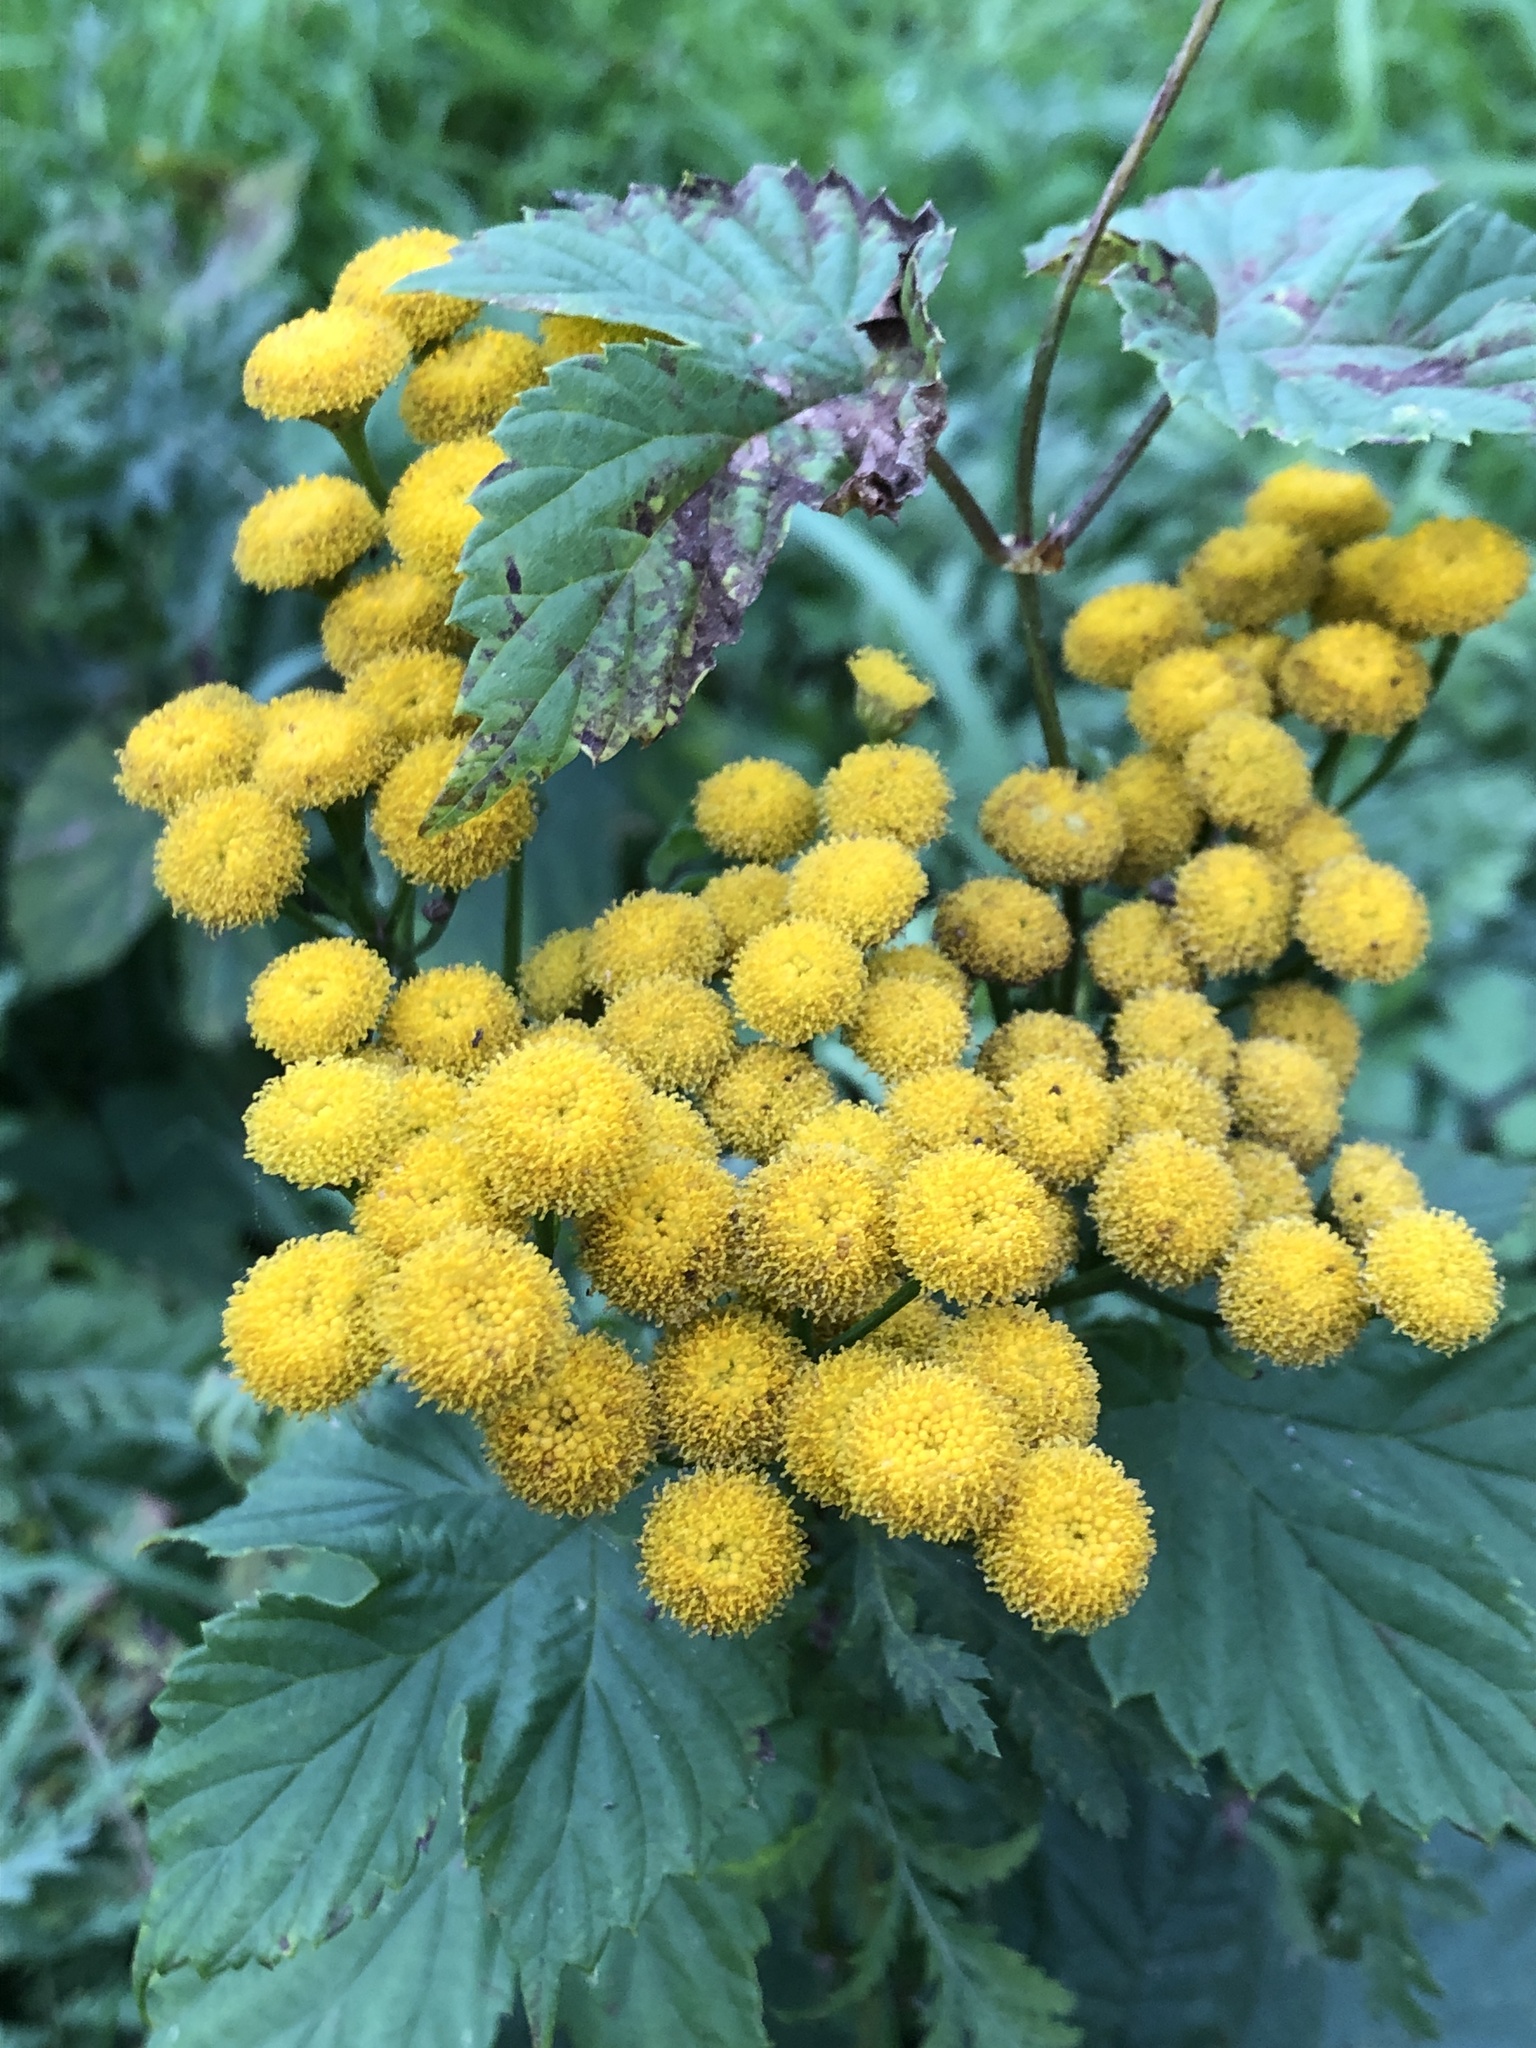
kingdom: Plantae
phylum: Tracheophyta
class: Magnoliopsida
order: Asterales
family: Asteraceae
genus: Tanacetum
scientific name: Tanacetum vulgare
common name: Common tansy
